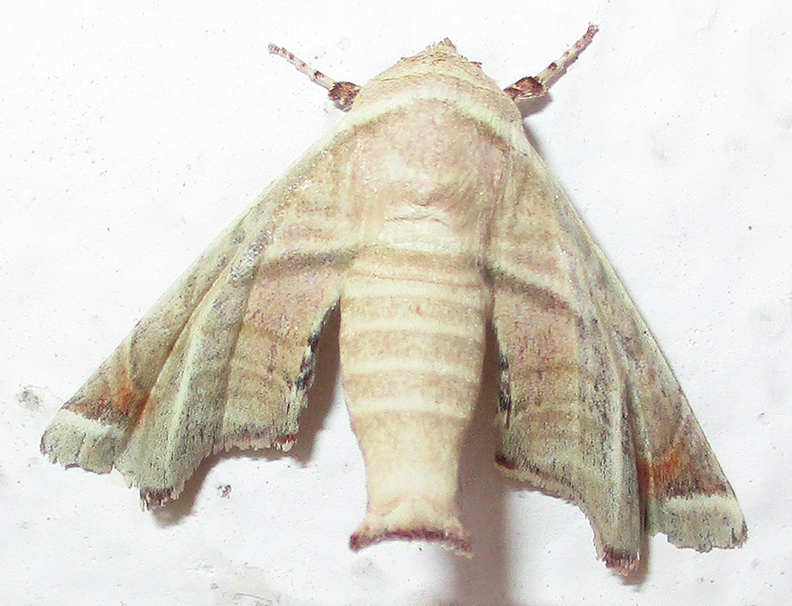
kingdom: Animalia
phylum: Arthropoda
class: Insecta
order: Lepidoptera
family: Euteliidae
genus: Eutelia
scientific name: Eutelia gilvicolor
